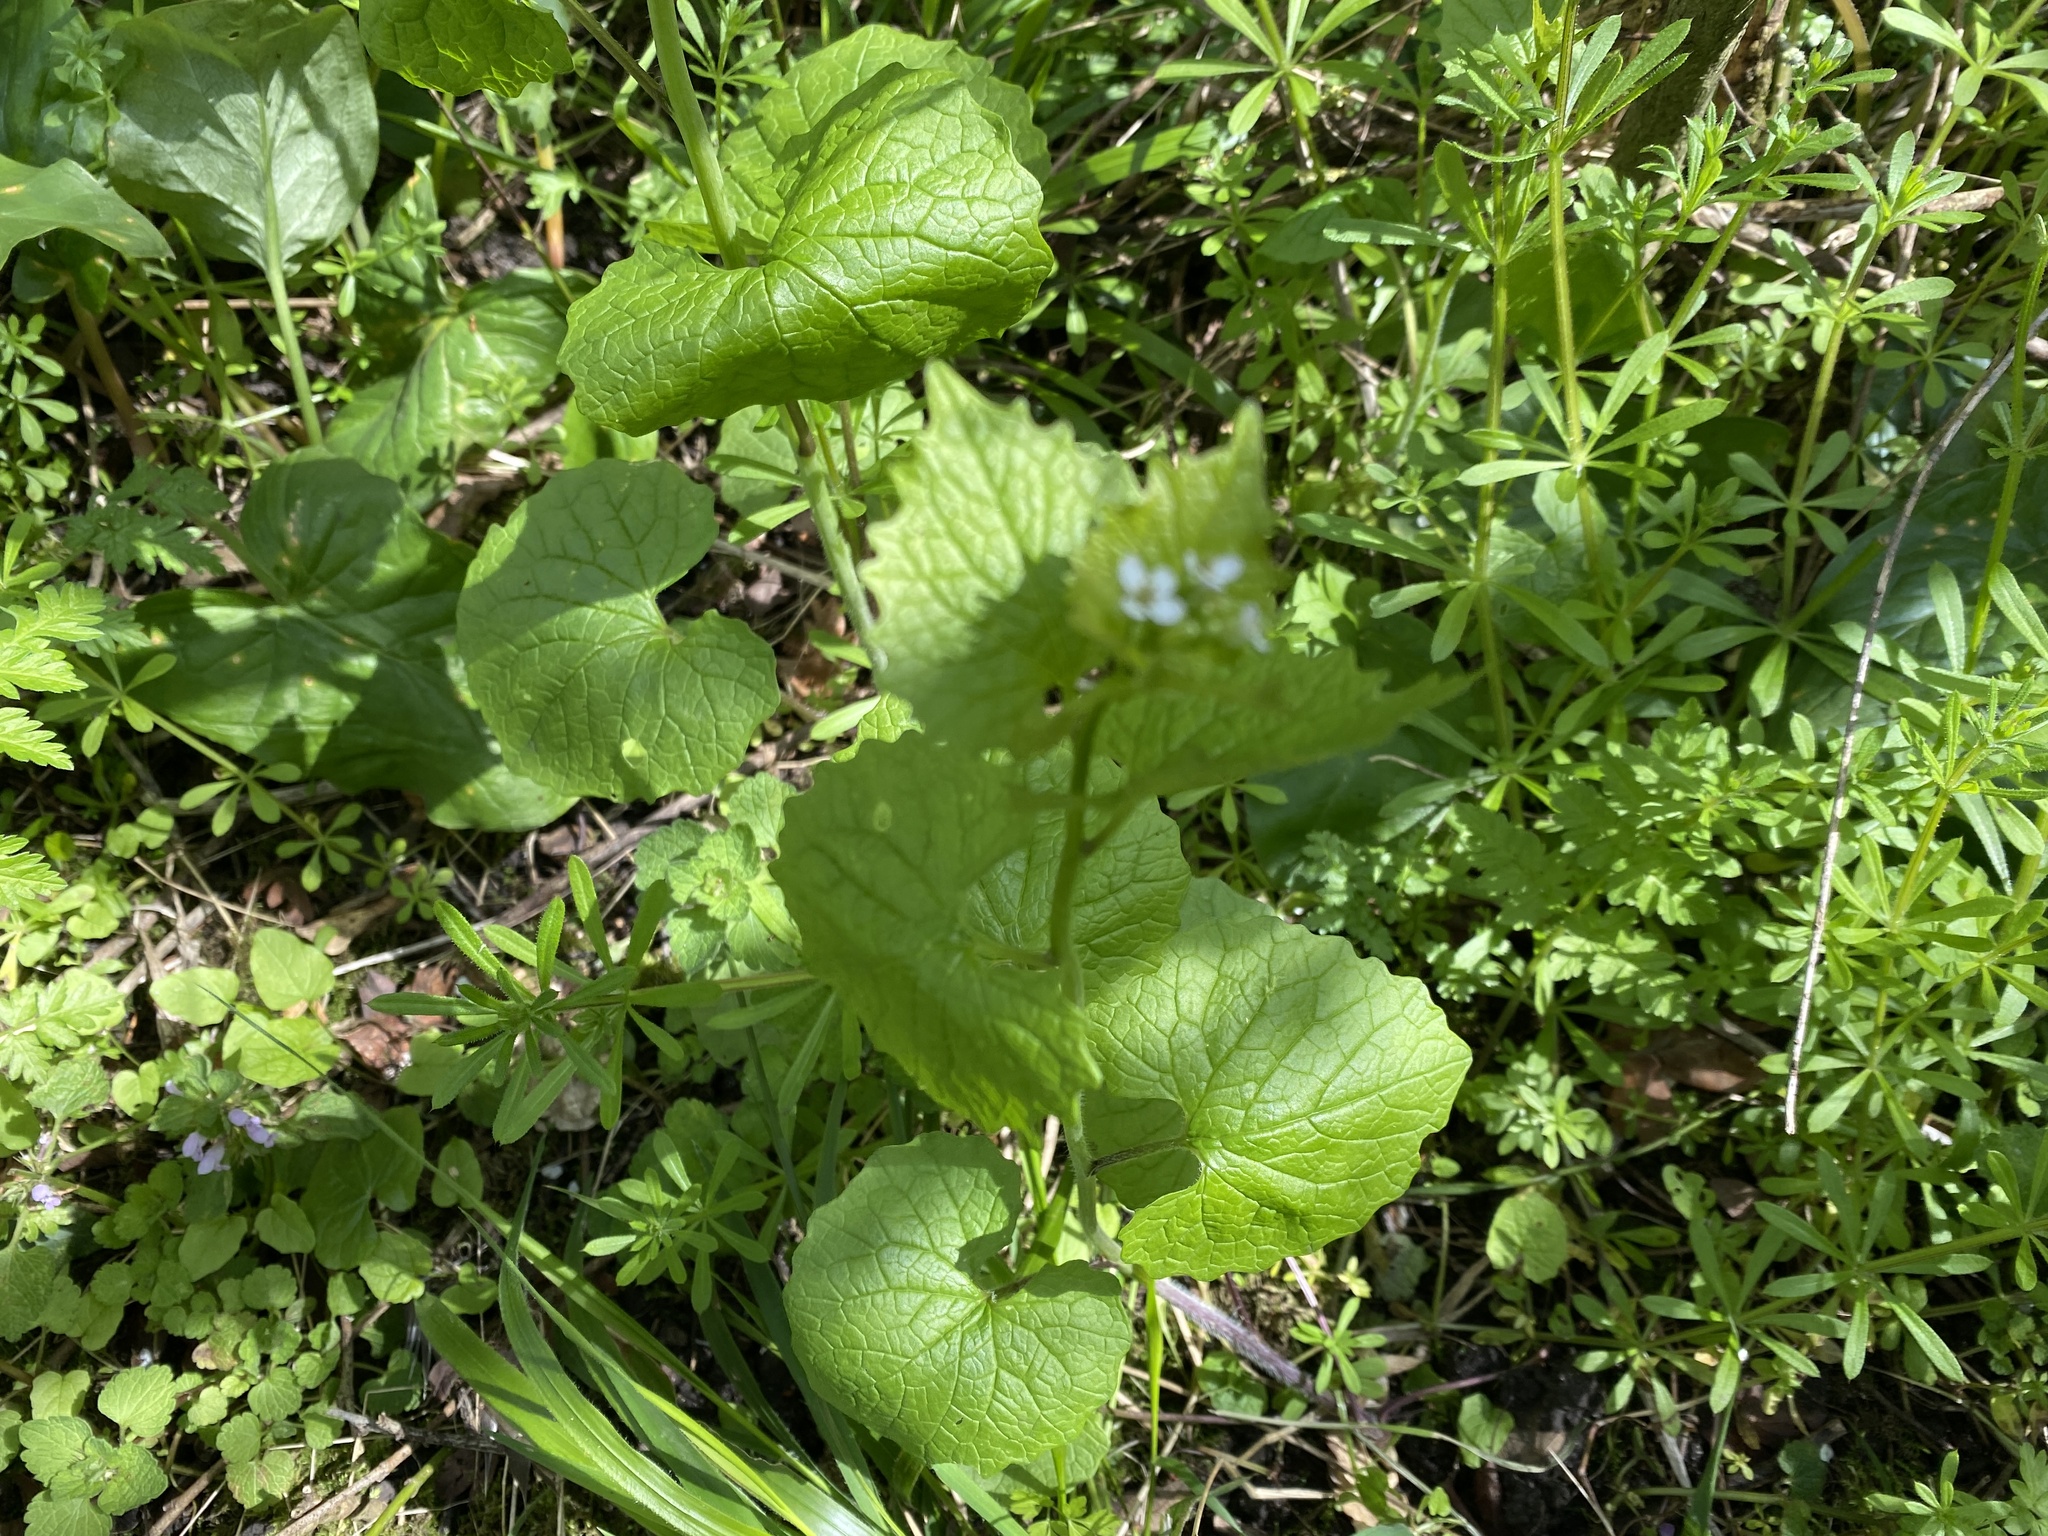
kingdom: Plantae
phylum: Tracheophyta
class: Magnoliopsida
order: Brassicales
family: Brassicaceae
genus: Alliaria
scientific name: Alliaria petiolata
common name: Garlic mustard
